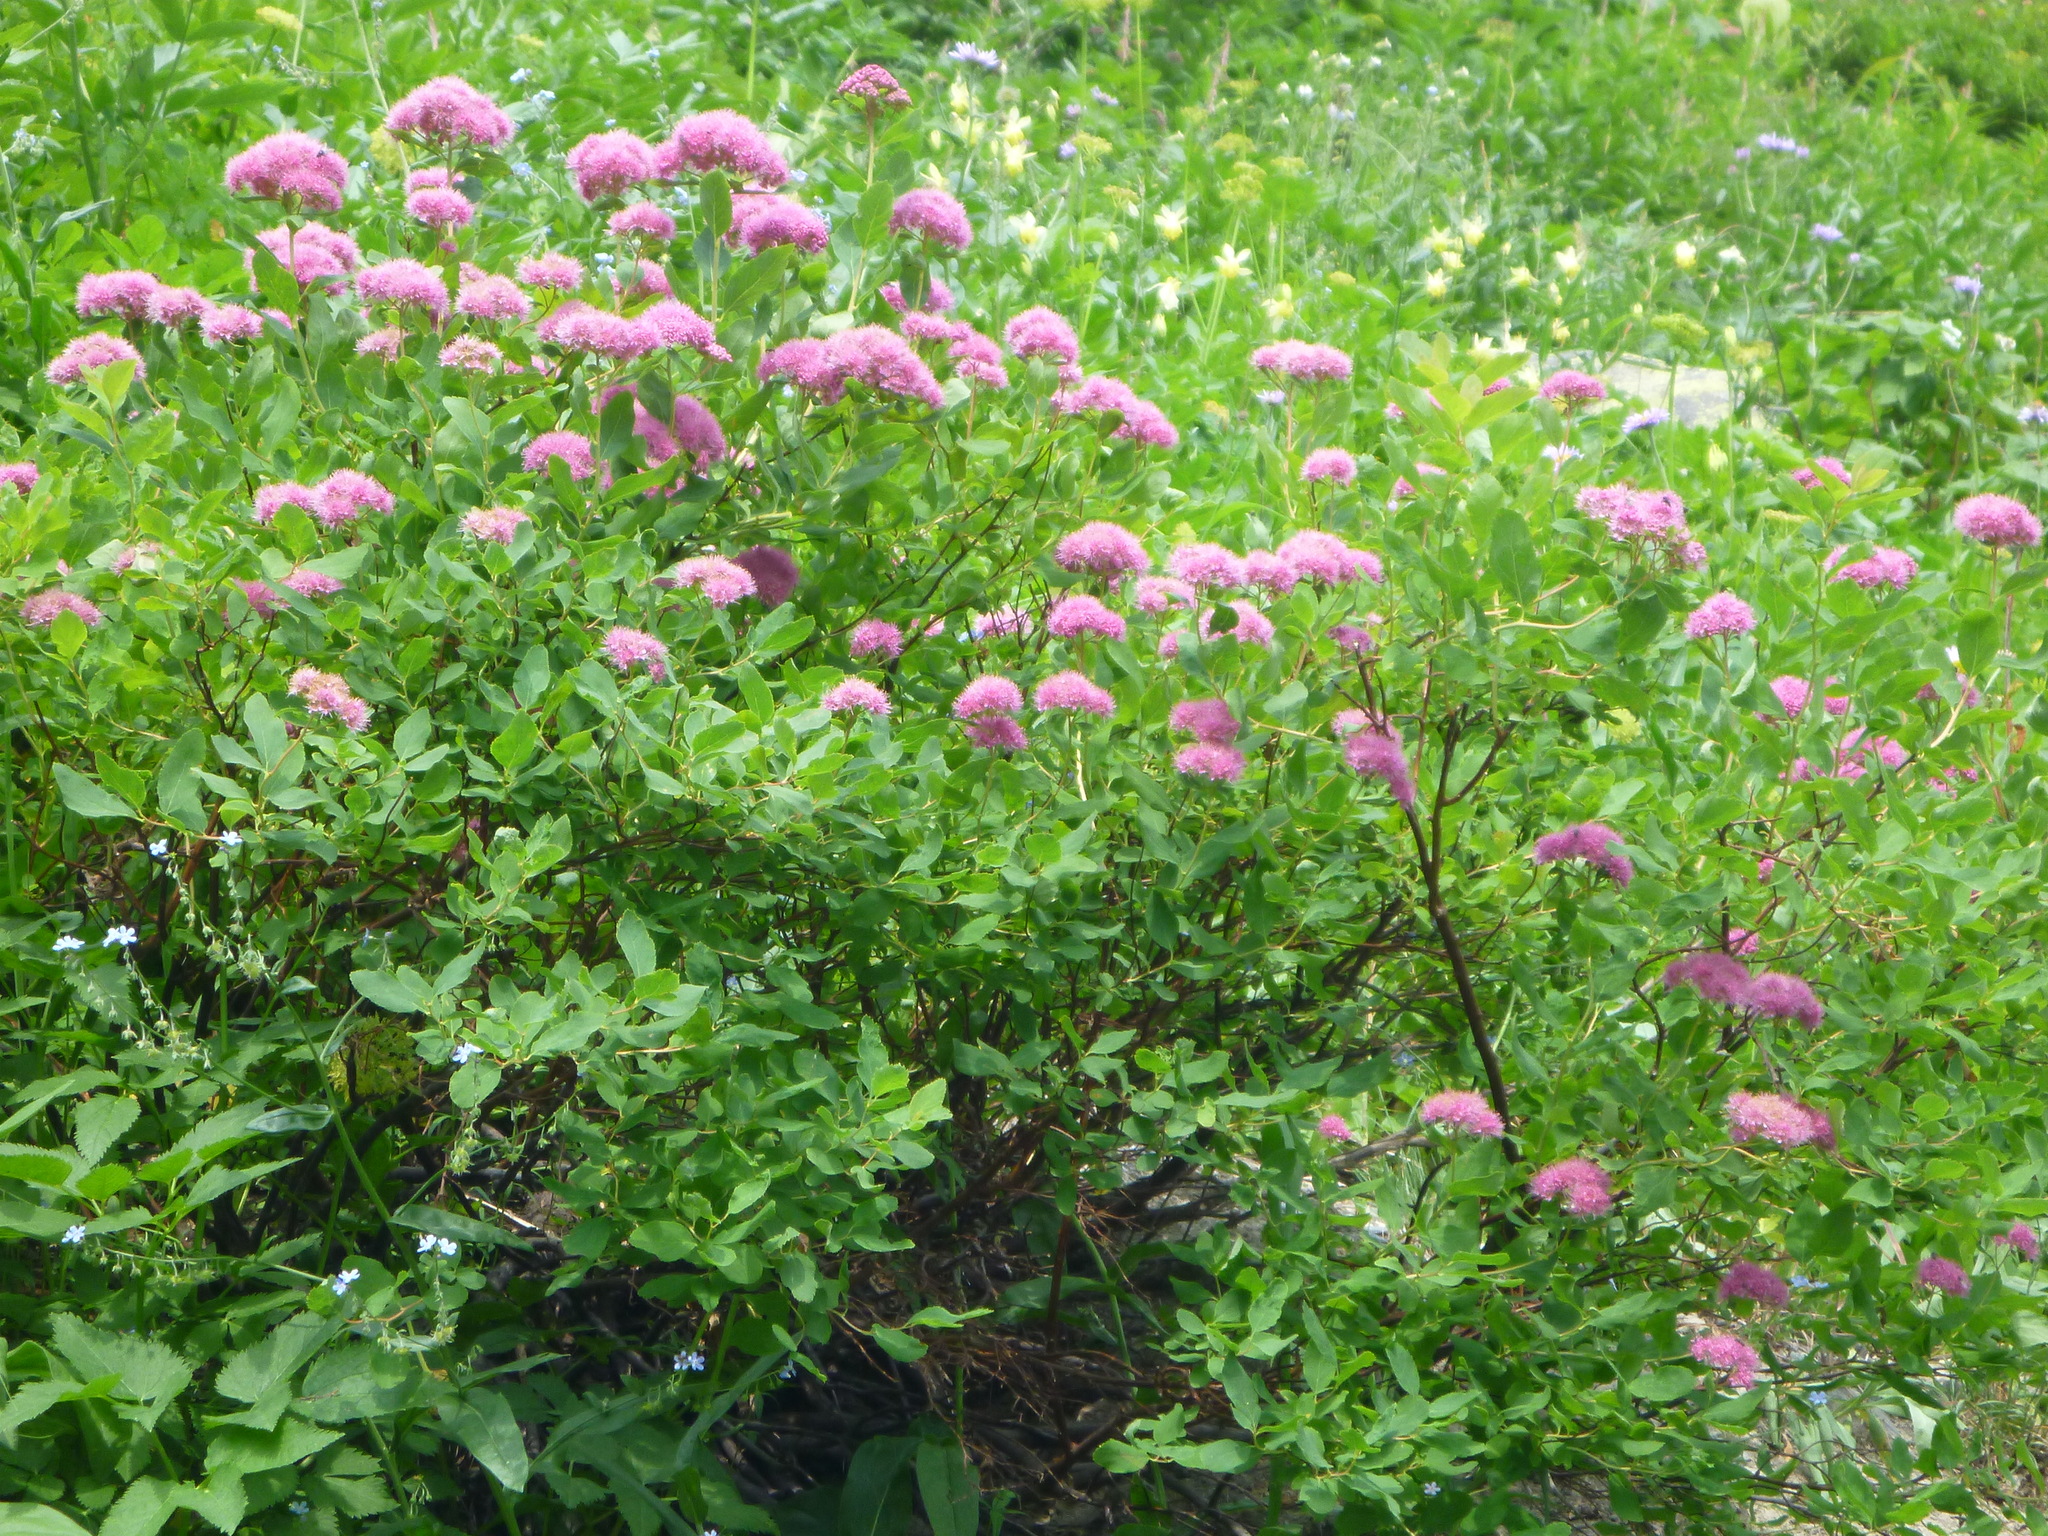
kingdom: Plantae
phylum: Tracheophyta
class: Magnoliopsida
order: Rosales
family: Rosaceae
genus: Spiraea
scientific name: Spiraea splendens
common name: Subalpine meadowsweet
